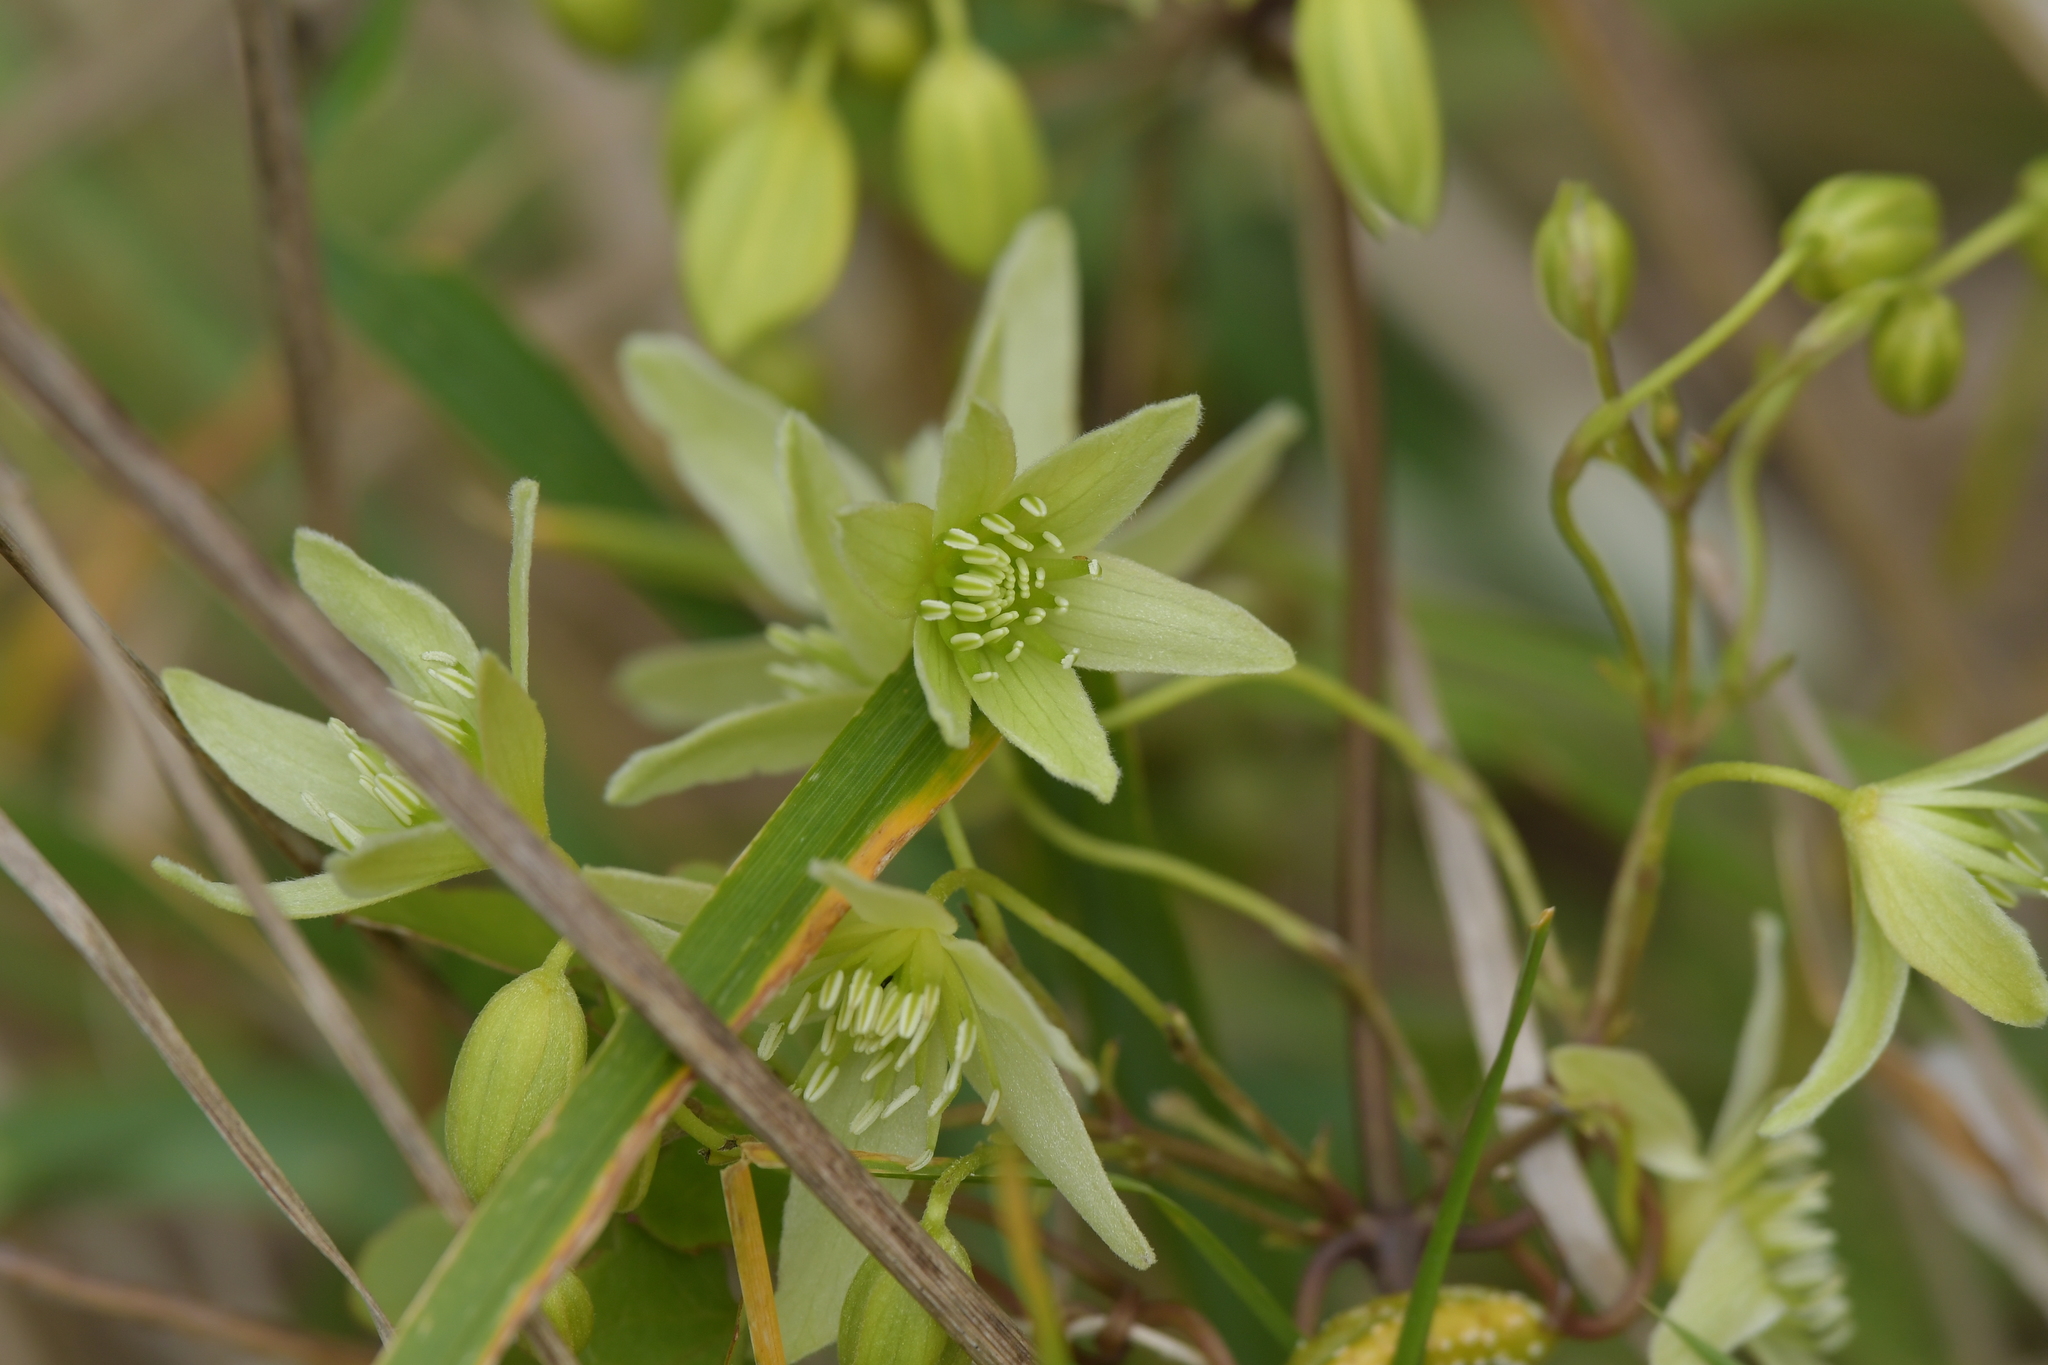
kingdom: Plantae
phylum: Tracheophyta
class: Magnoliopsida
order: Ranunculales
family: Ranunculaceae
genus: Clematis
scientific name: Clematis forsteri
